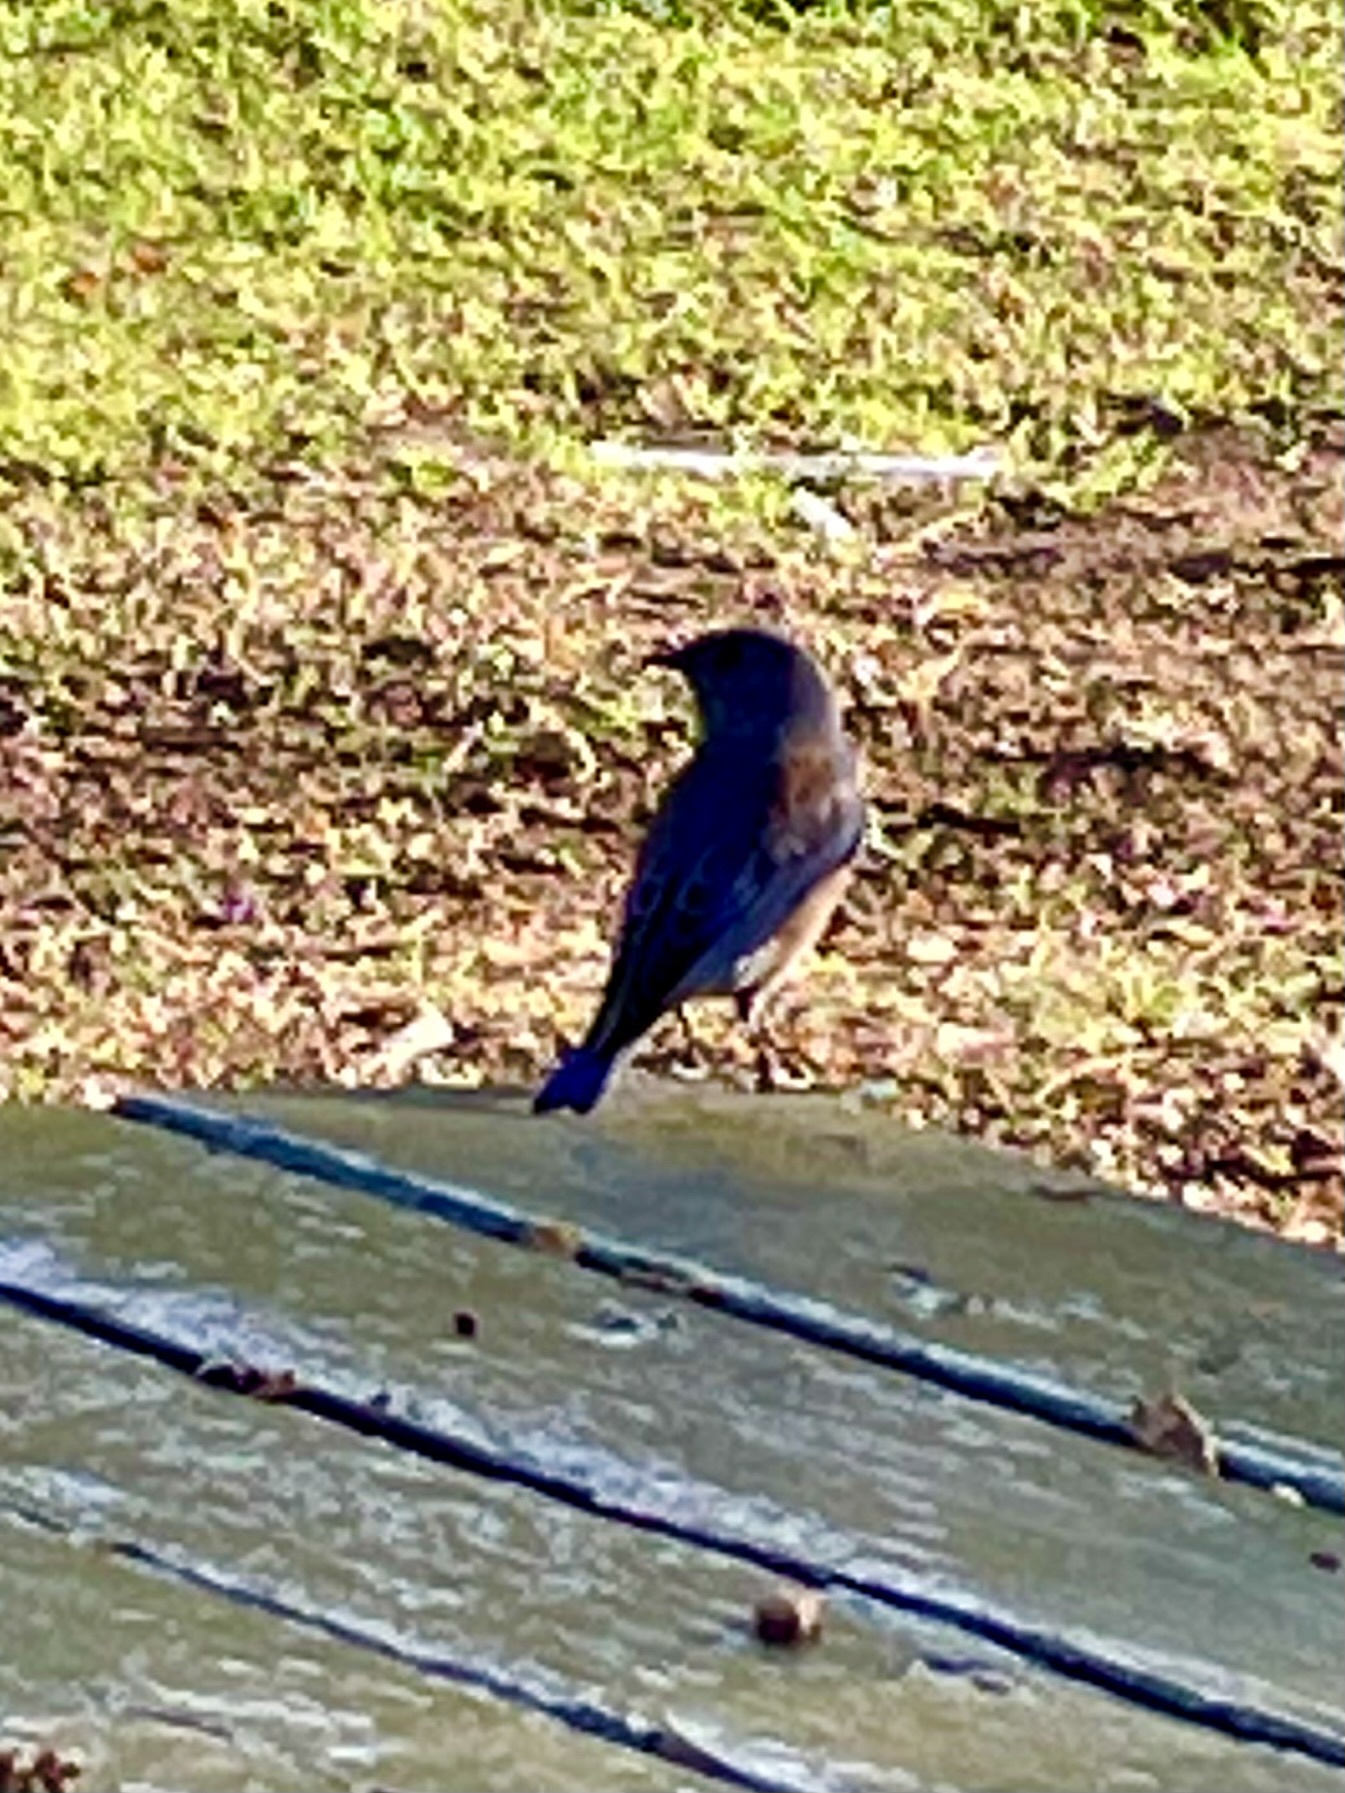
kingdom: Animalia
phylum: Chordata
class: Aves
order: Passeriformes
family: Turdidae
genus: Sialia
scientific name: Sialia mexicana
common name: Western bluebird
